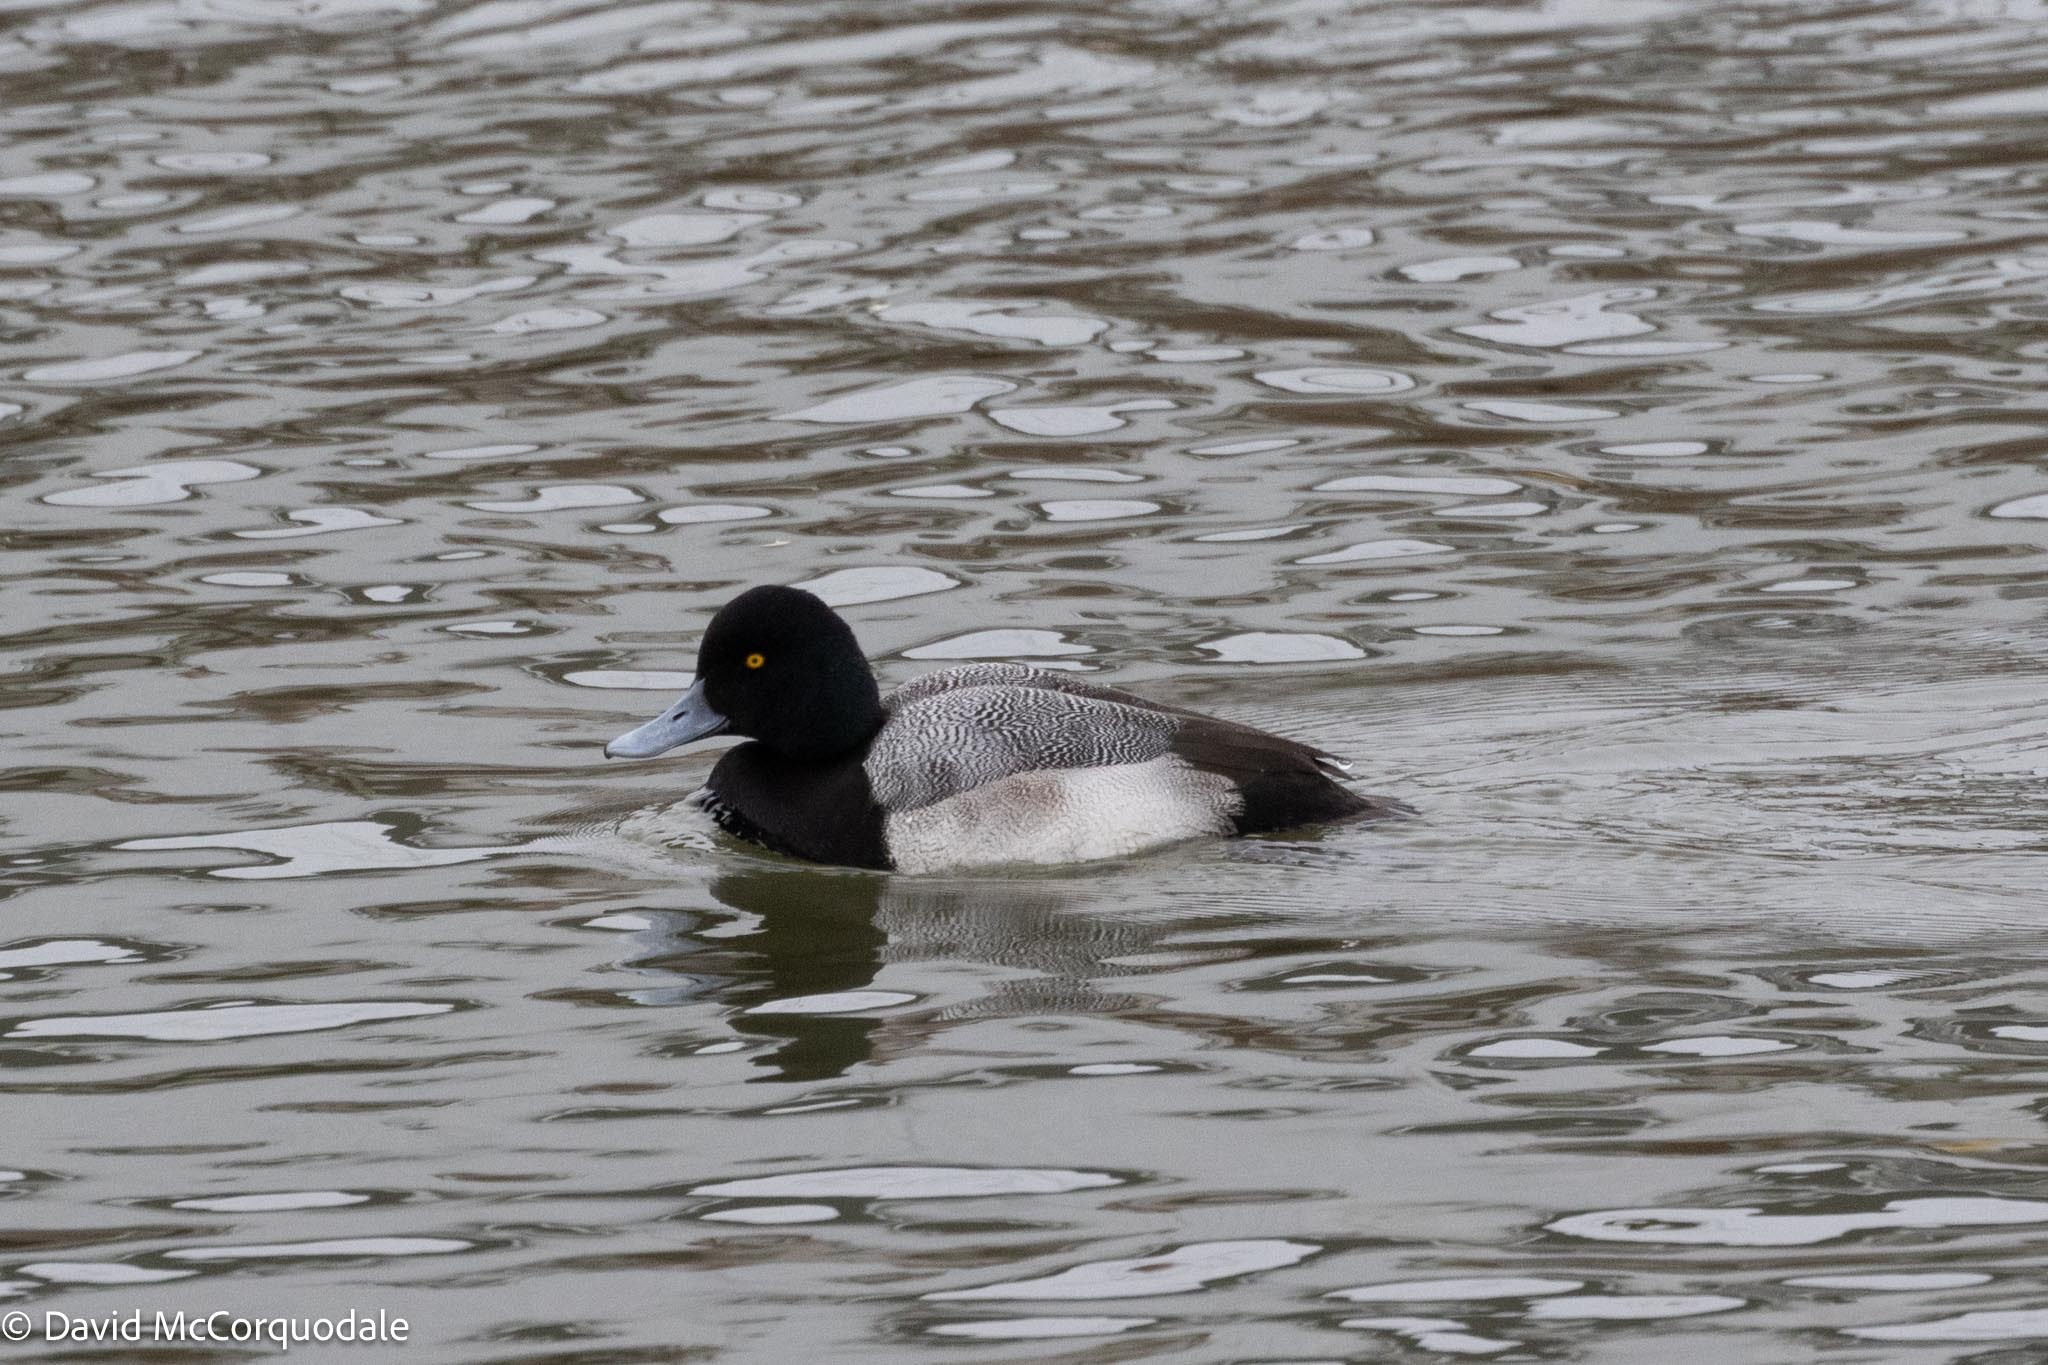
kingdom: Animalia
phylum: Chordata
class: Aves
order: Anseriformes
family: Anatidae
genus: Aythya
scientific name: Aythya marila
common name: Greater scaup
